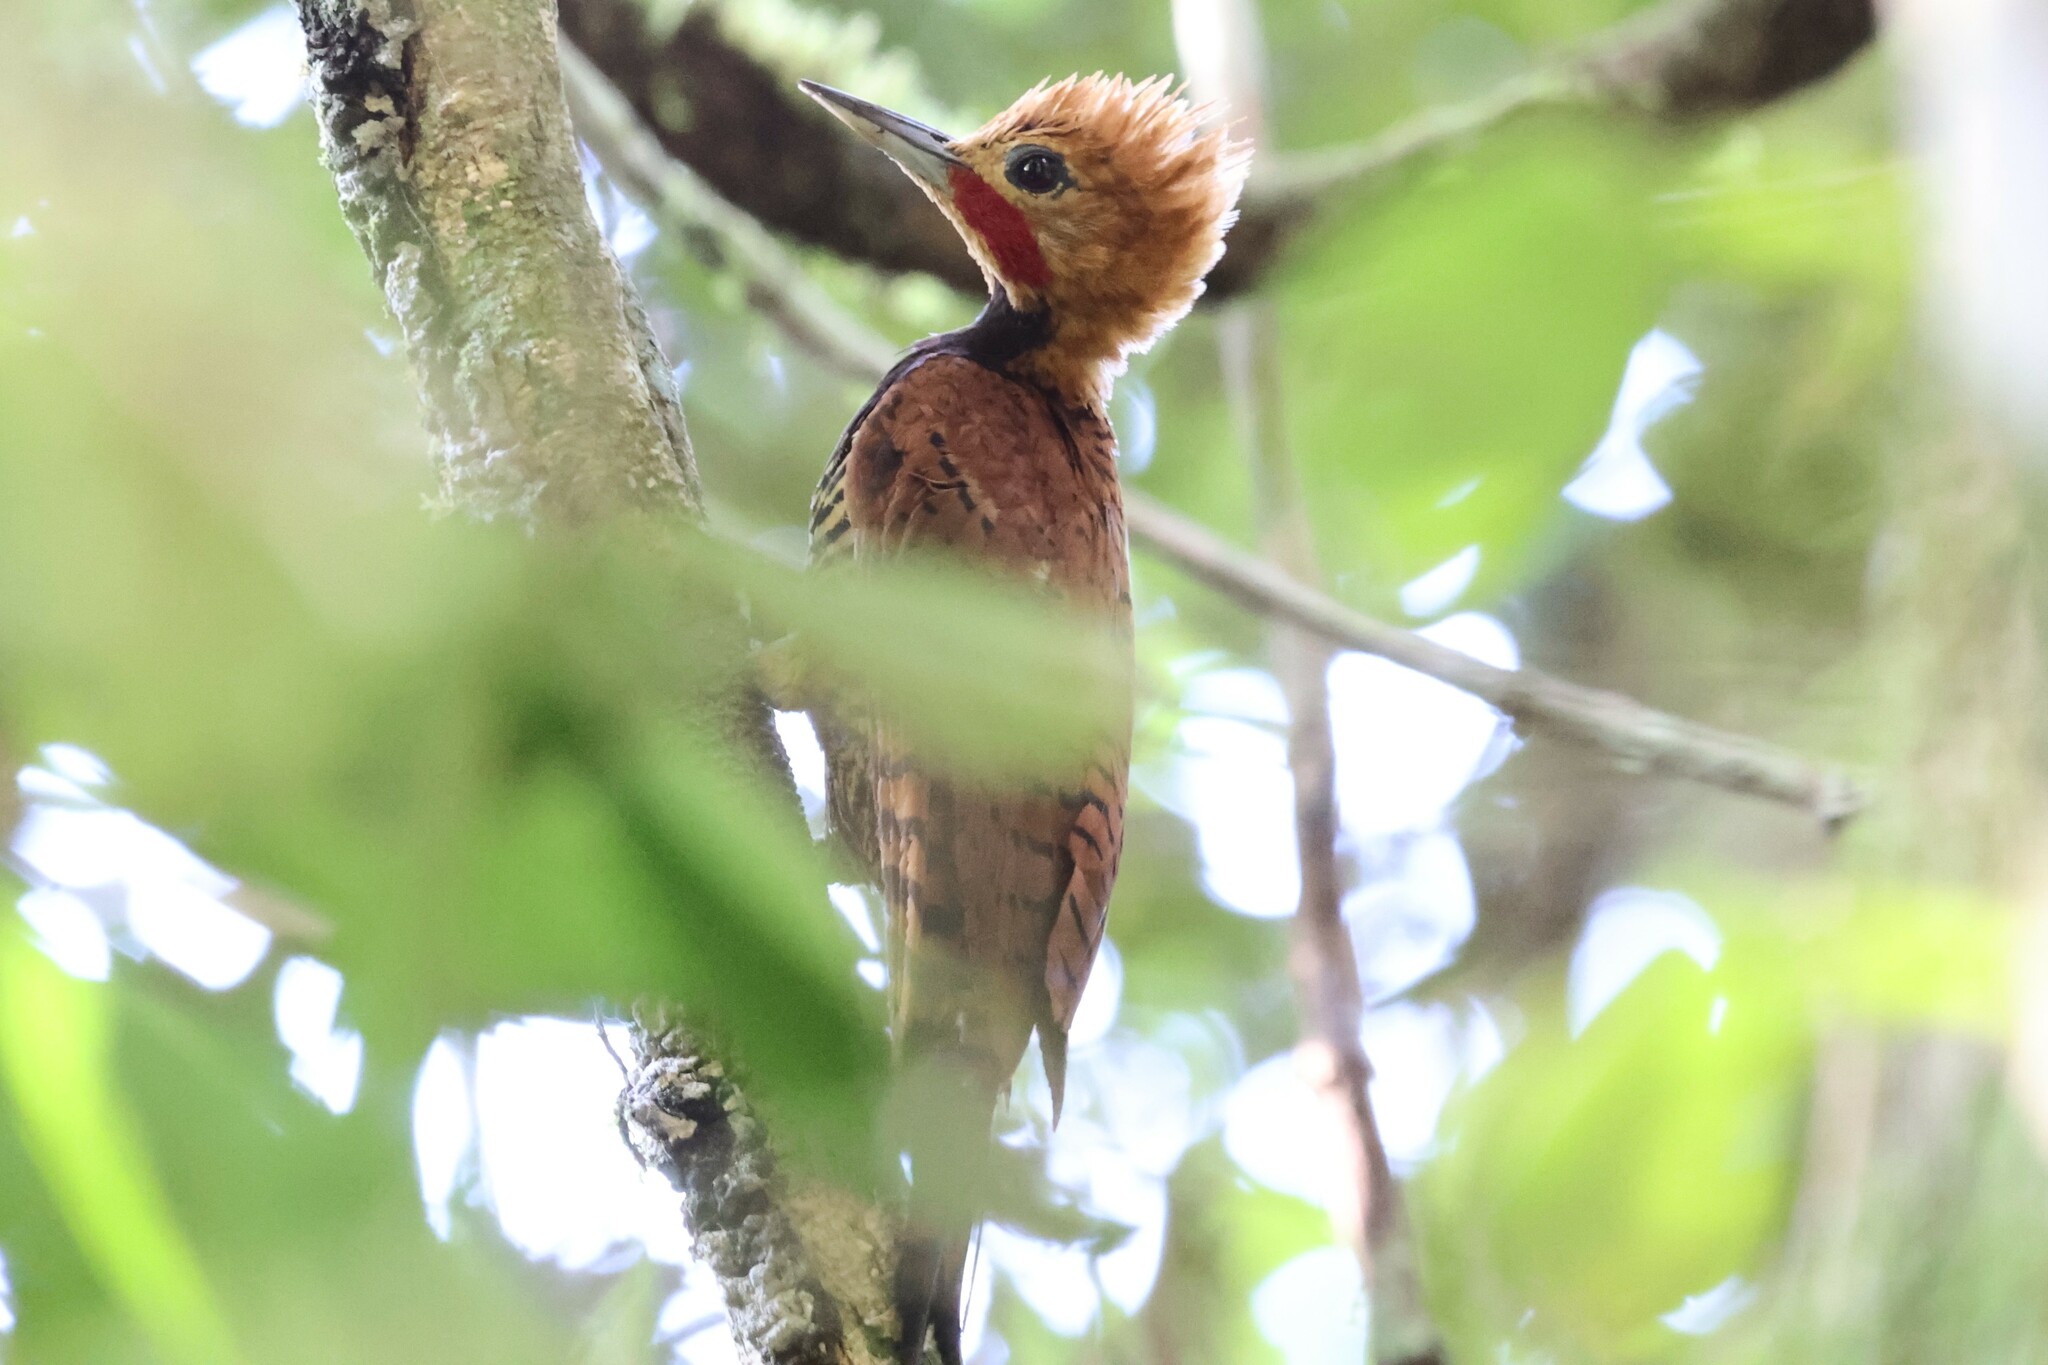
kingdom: Animalia
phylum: Chordata
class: Aves
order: Piciformes
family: Picidae
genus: Celeus
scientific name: Celeus torquatus
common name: Ringed woodpecker
